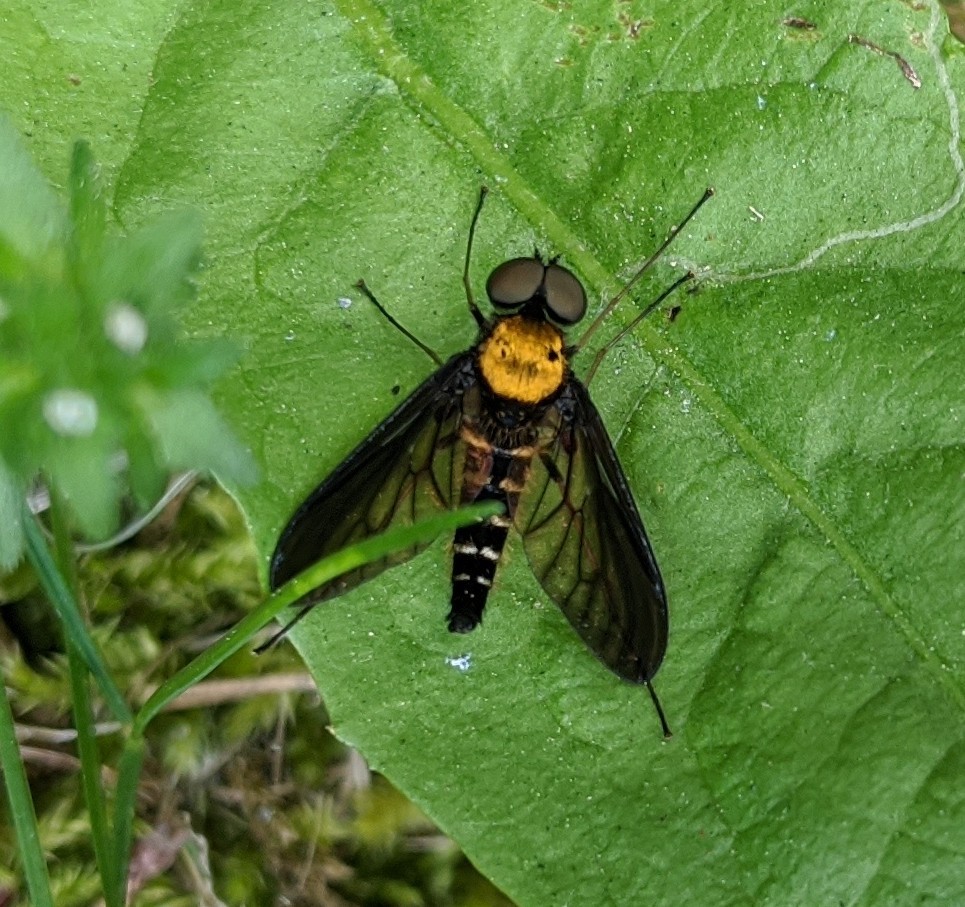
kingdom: Animalia
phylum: Arthropoda
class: Insecta
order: Diptera
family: Rhagionidae
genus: Chrysopilus
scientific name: Chrysopilus thoracicus
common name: Golden-backed snipe fly
